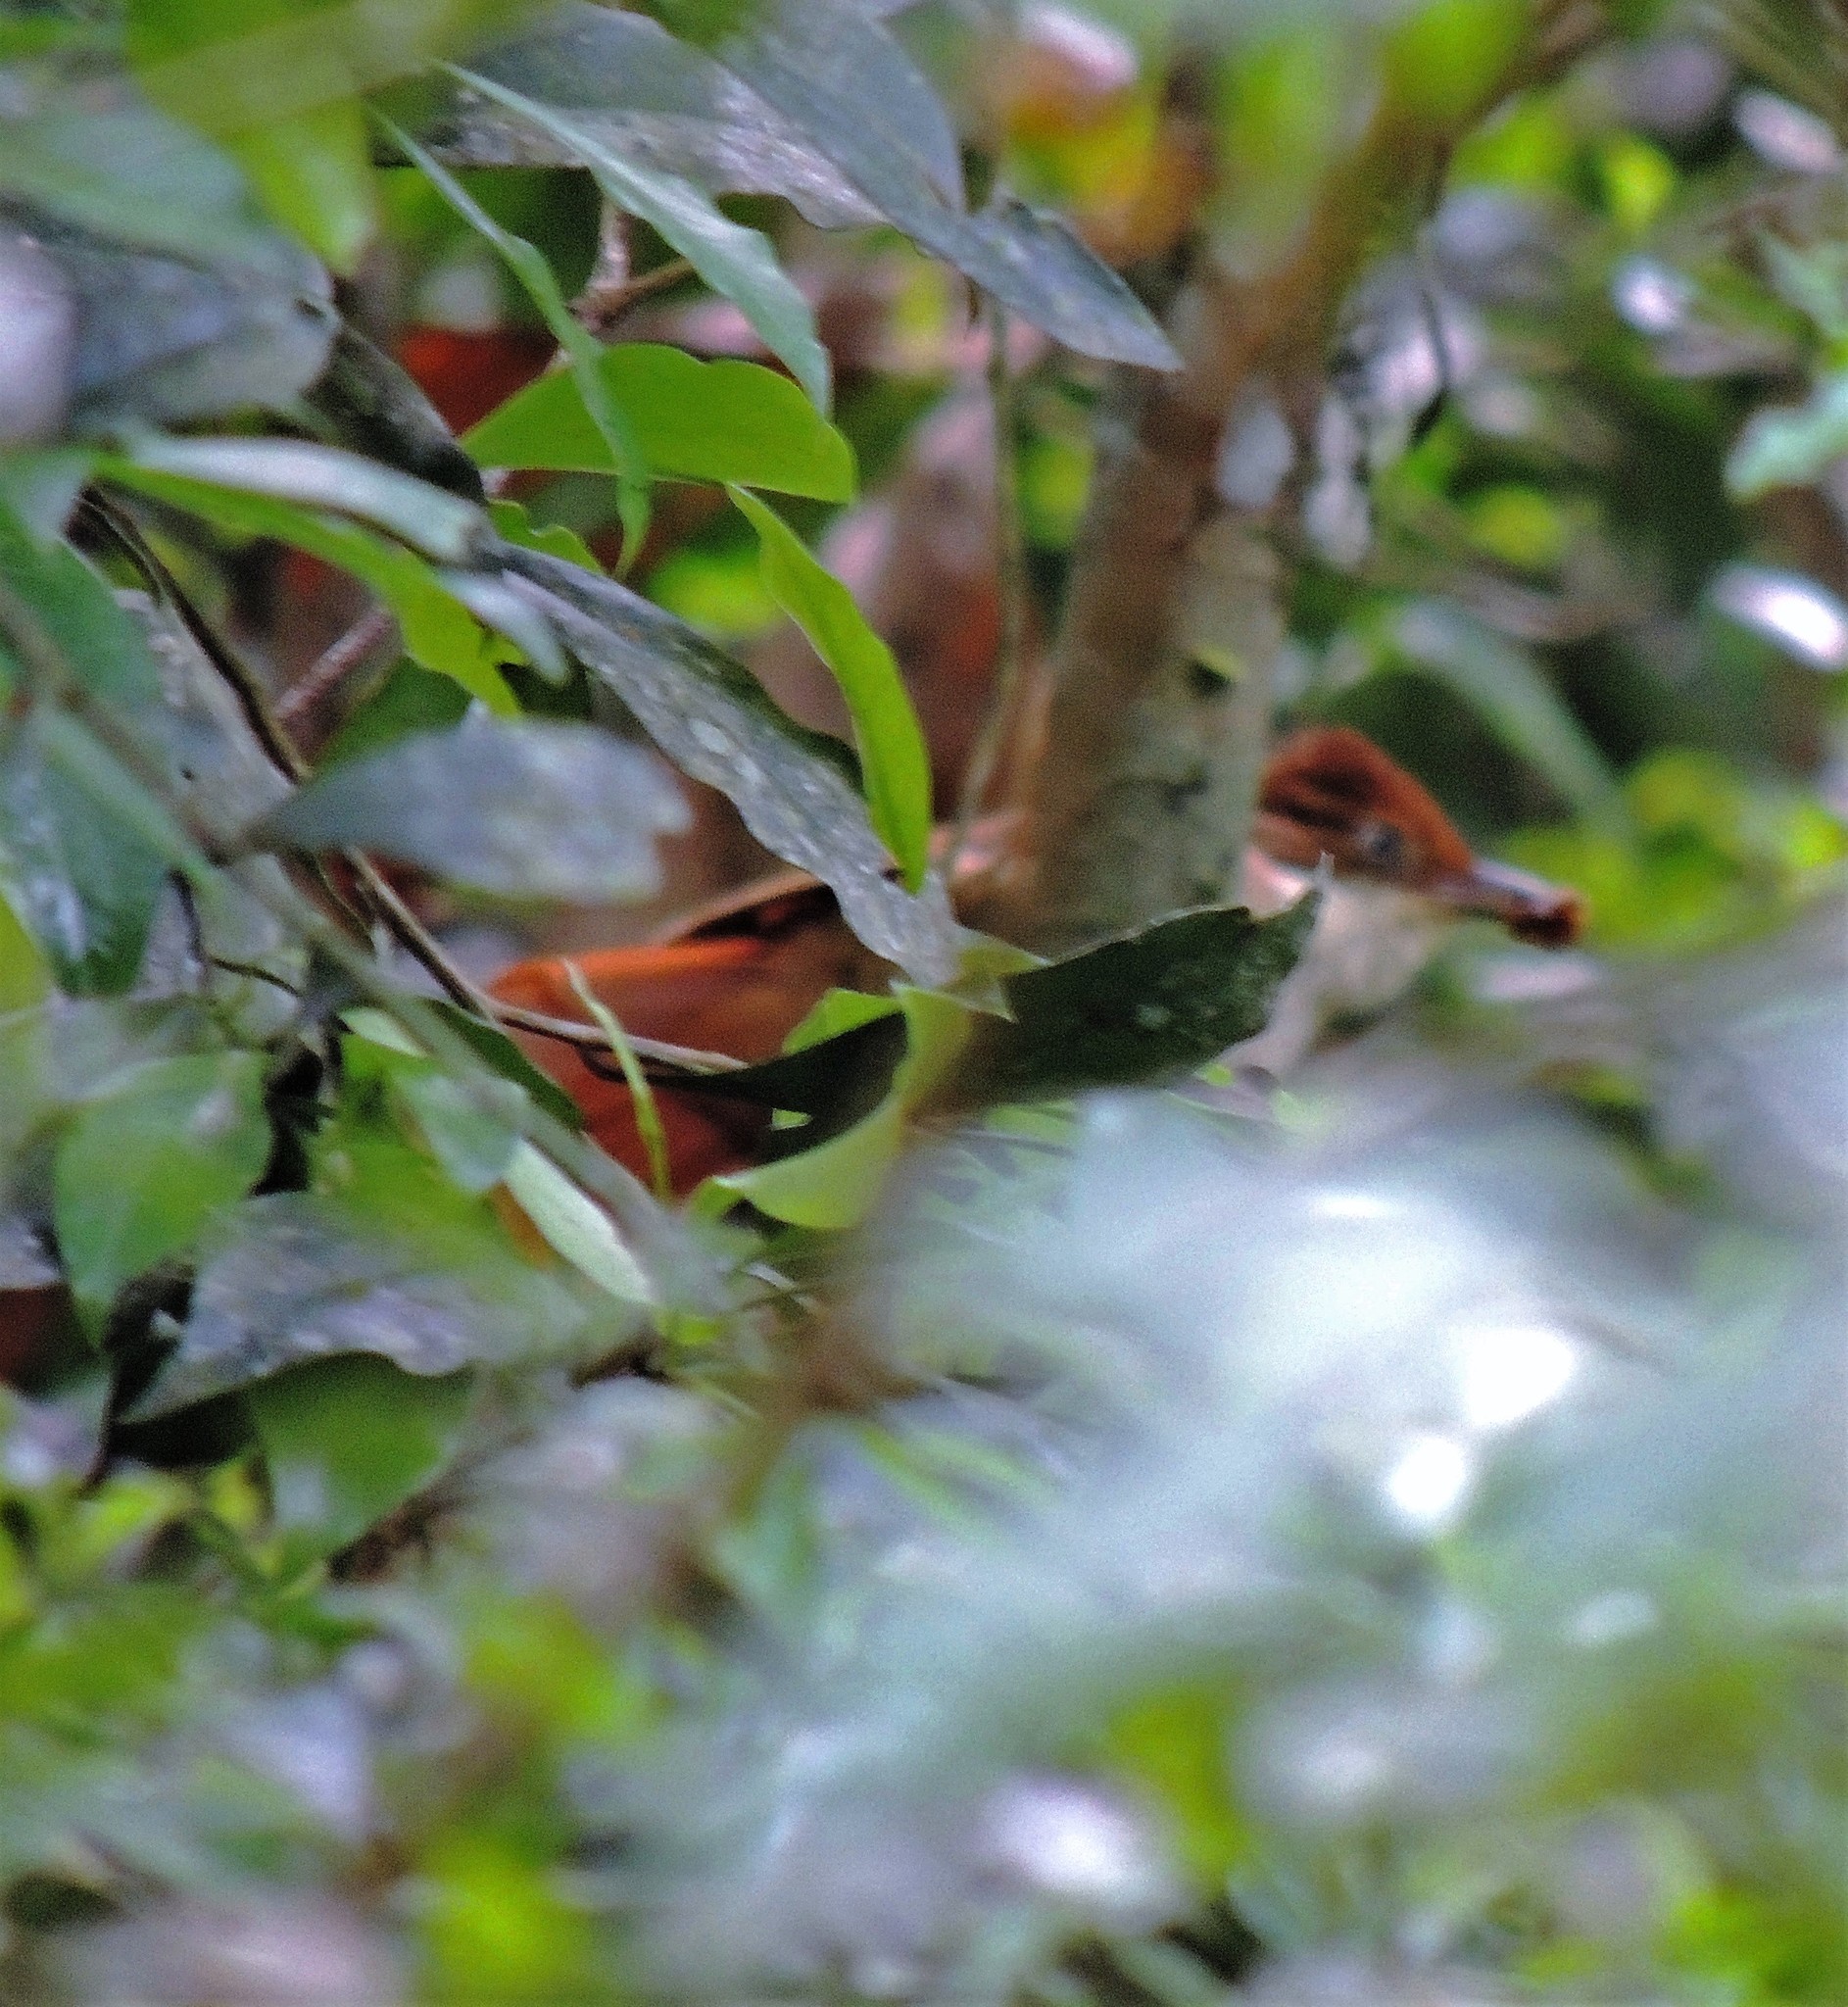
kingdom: Animalia
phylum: Chordata
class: Aves
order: Passeriformes
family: Furnariidae
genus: Automolus
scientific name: Automolus leucophthalmus
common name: White-eyed foliage-gleaner
